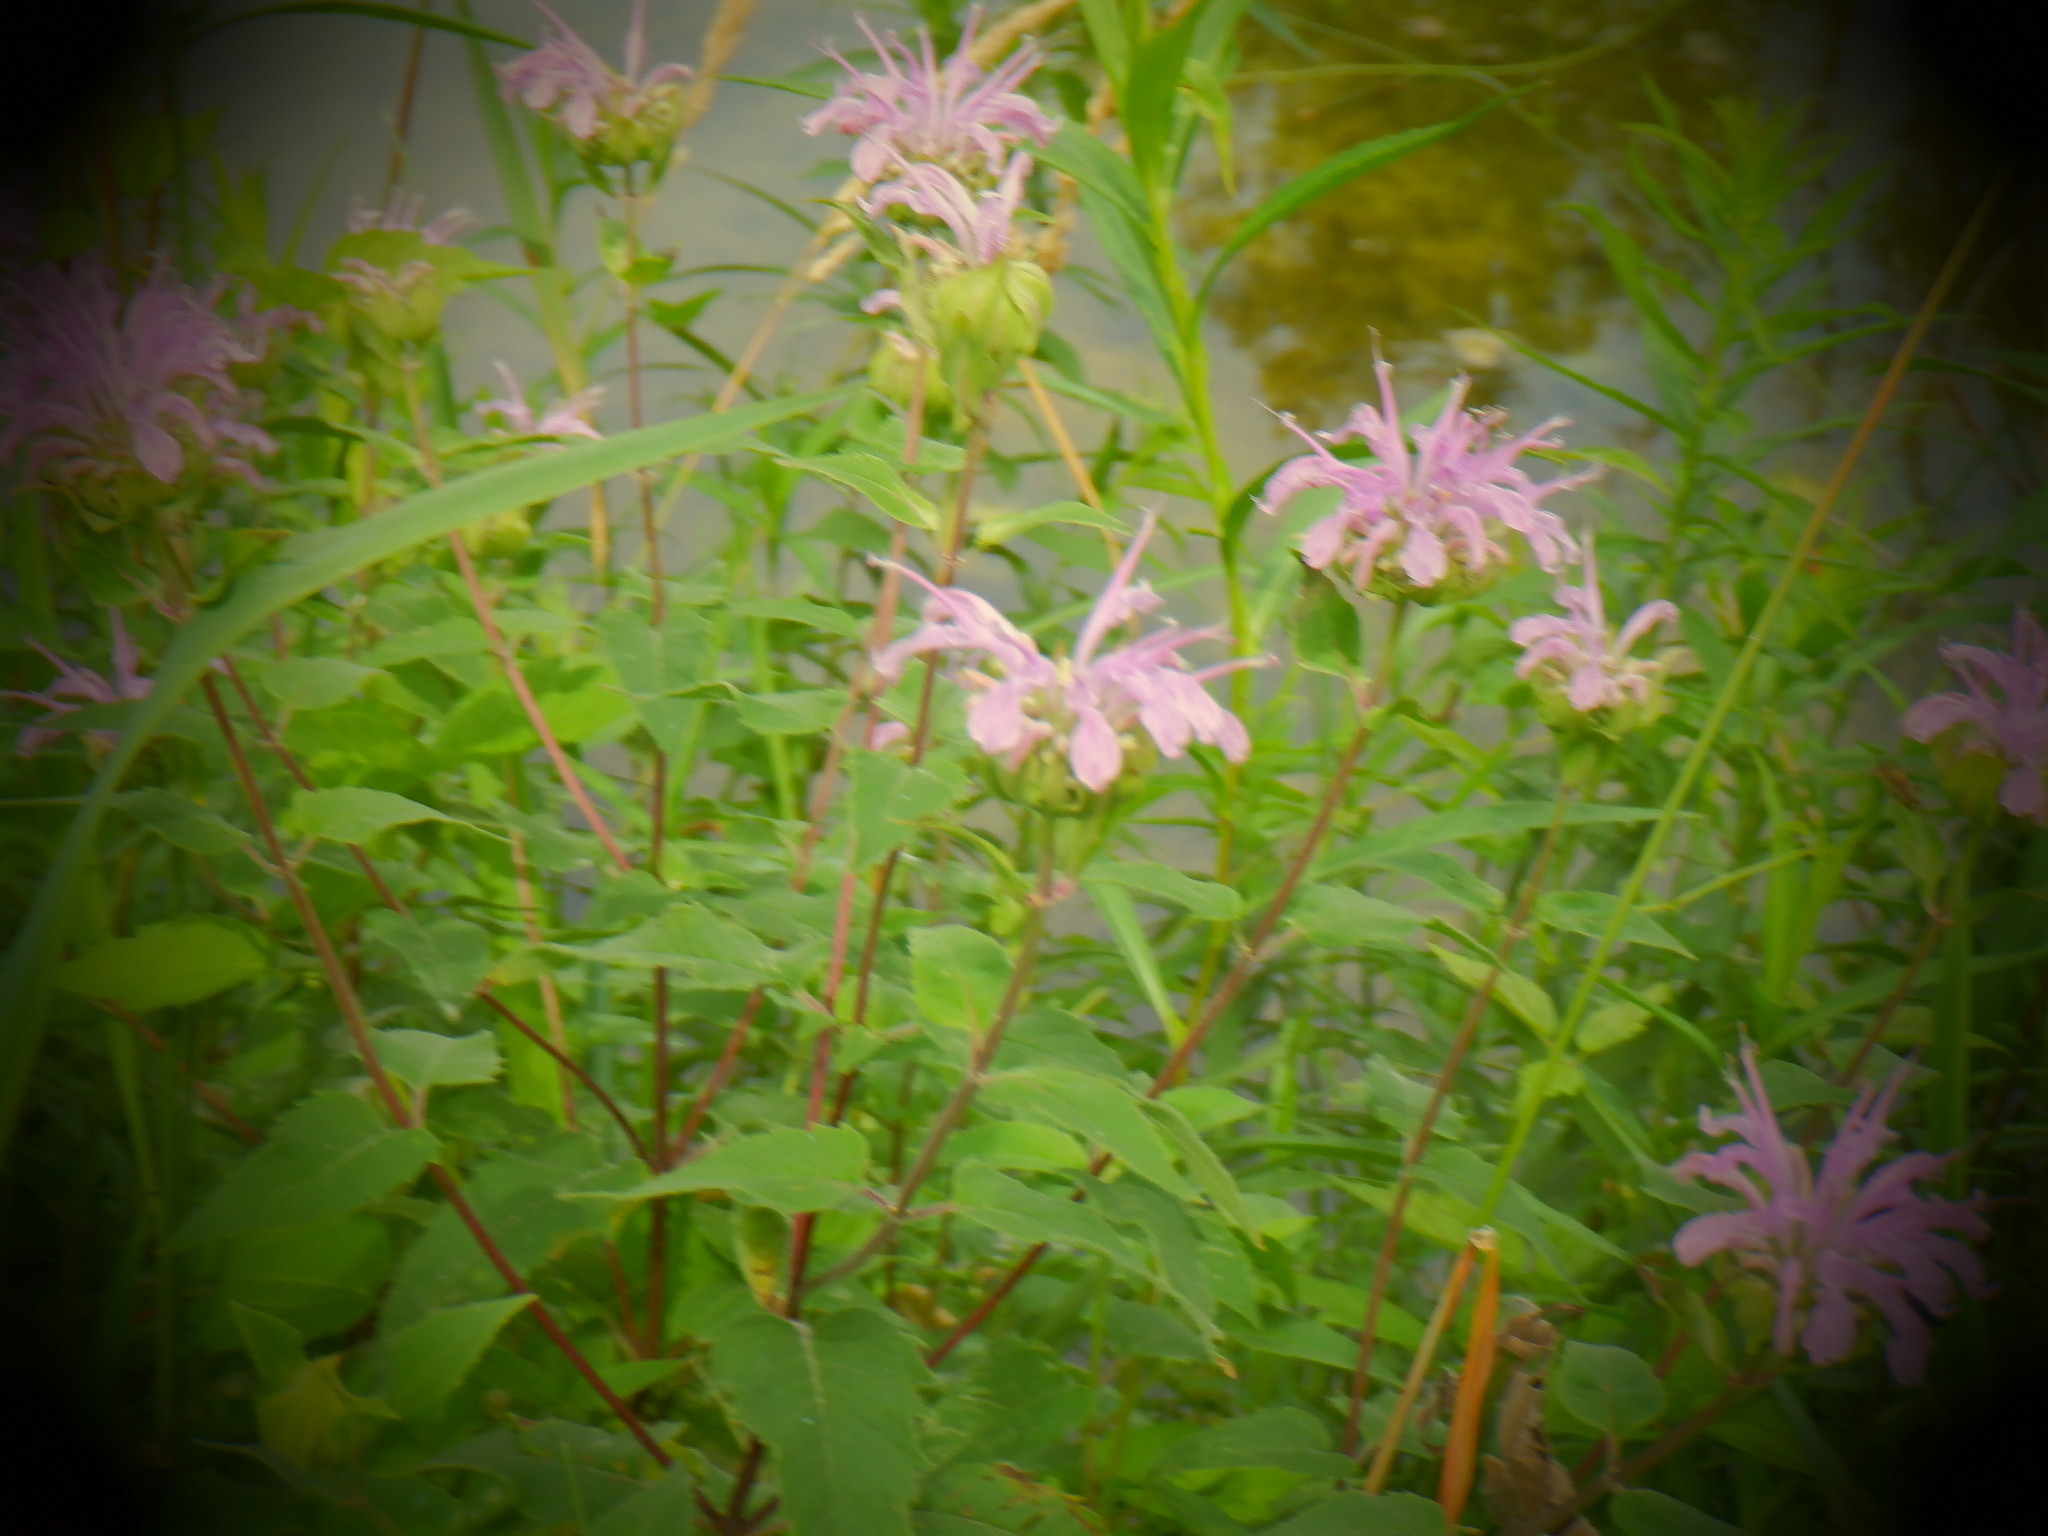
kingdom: Plantae
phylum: Tracheophyta
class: Magnoliopsida
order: Lamiales
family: Lamiaceae
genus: Monarda
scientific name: Monarda fistulosa
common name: Purple beebalm
